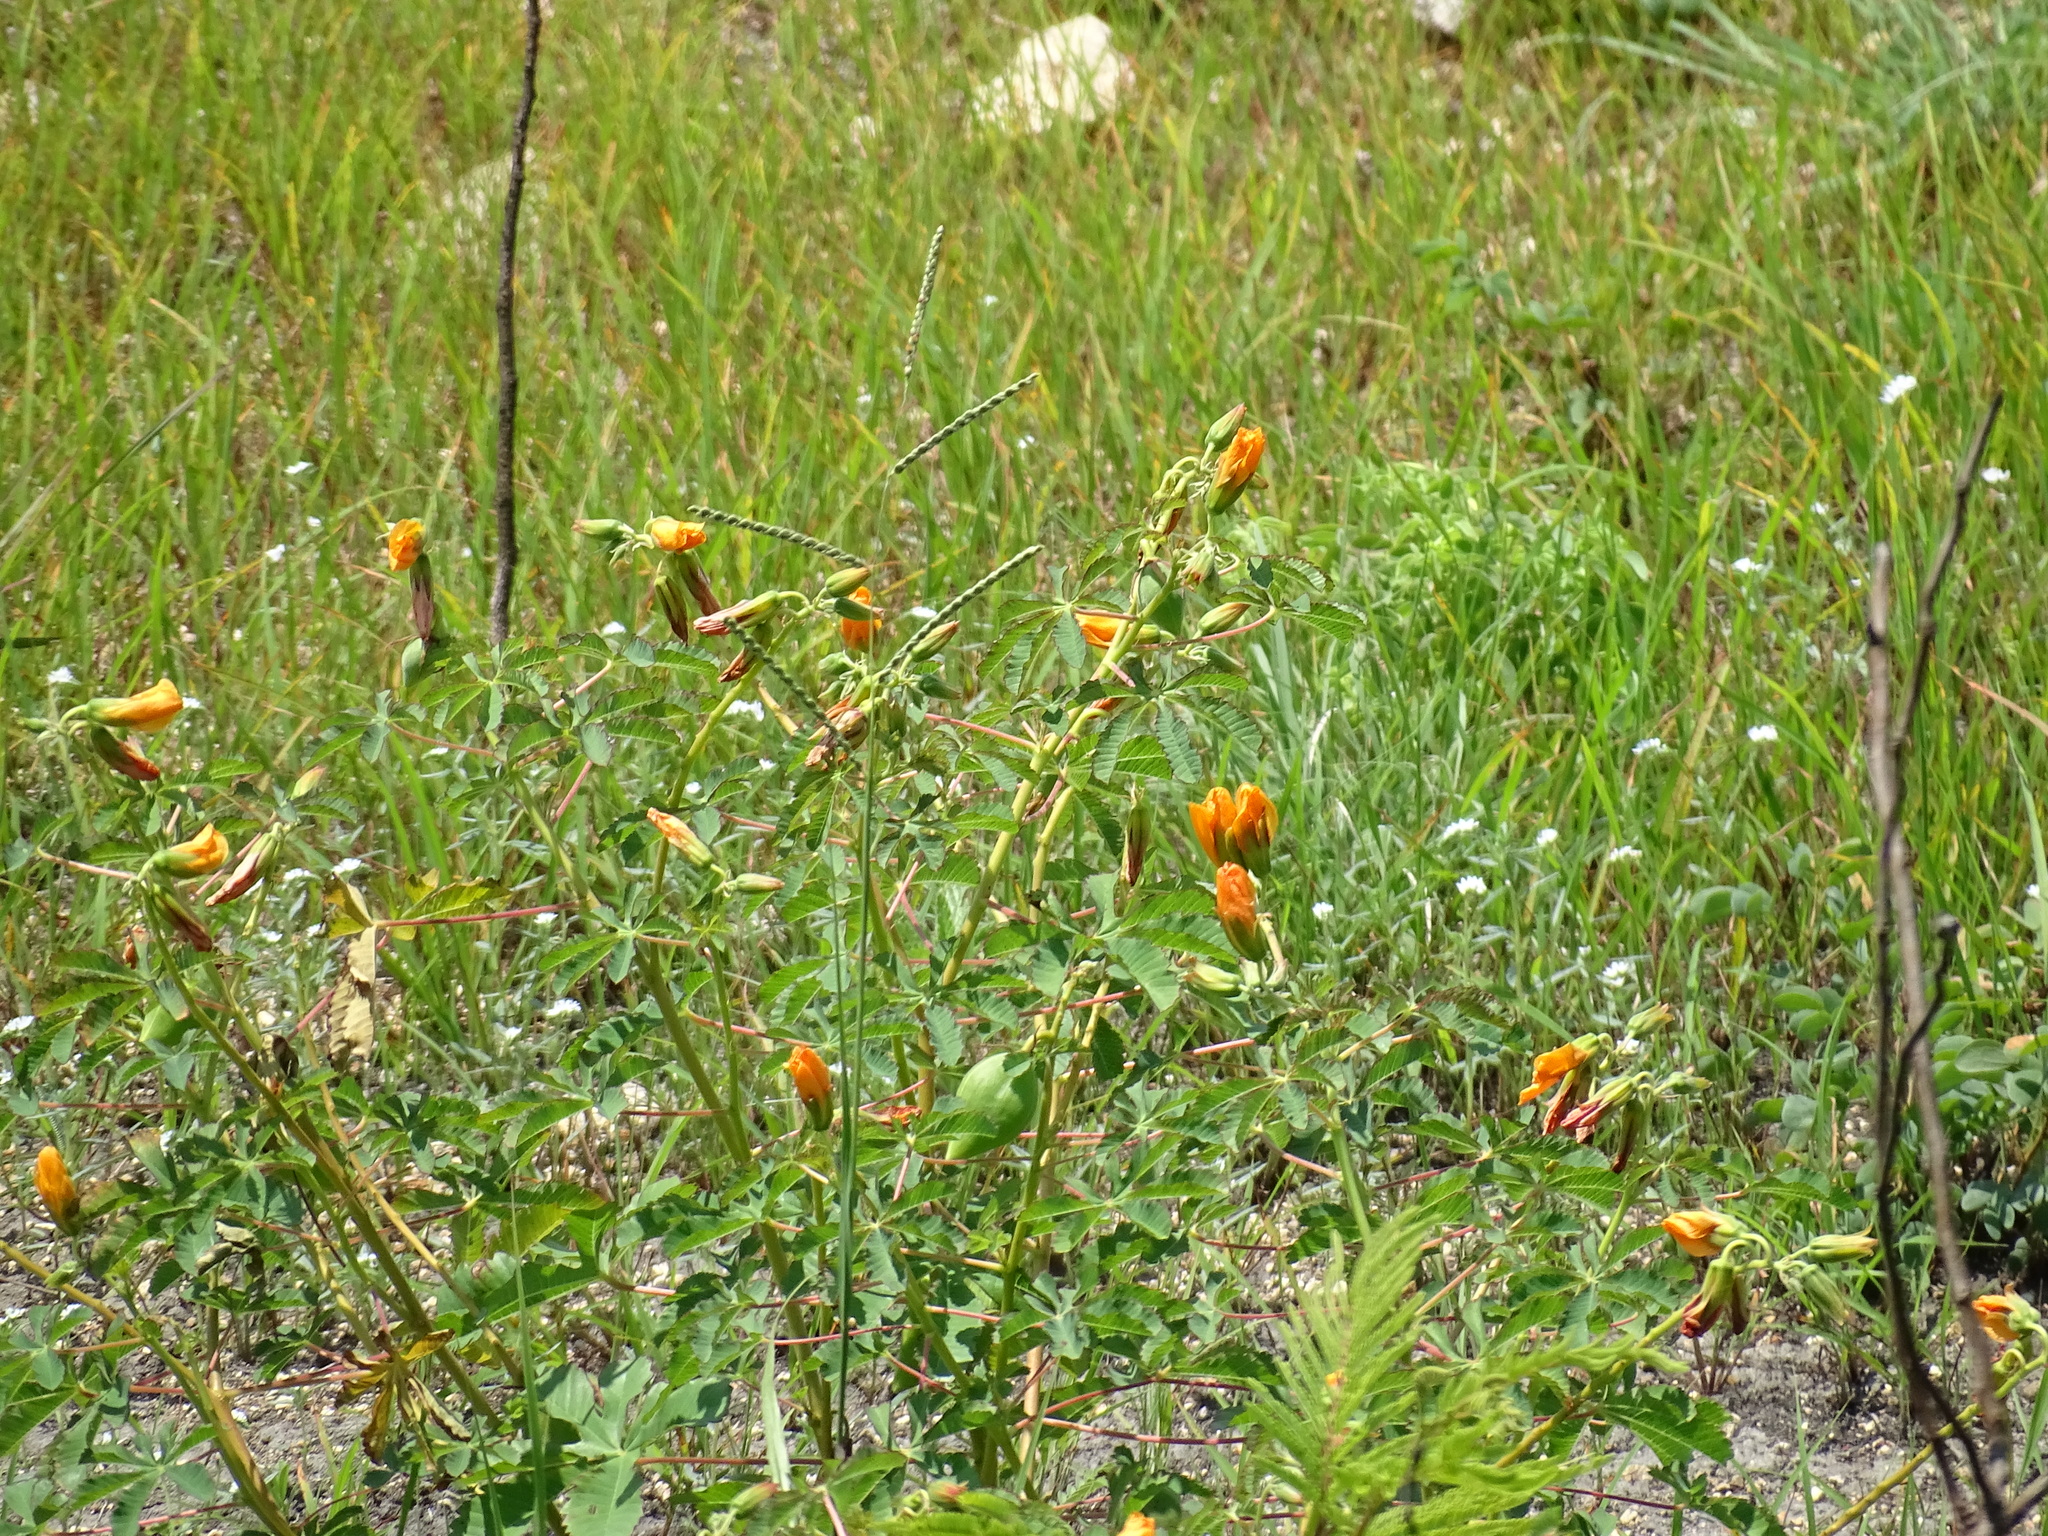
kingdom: Plantae
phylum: Tracheophyta
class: Magnoliopsida
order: Malvales
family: Cochlospermaceae
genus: Cochlospermum
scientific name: Cochlospermum wrightii
